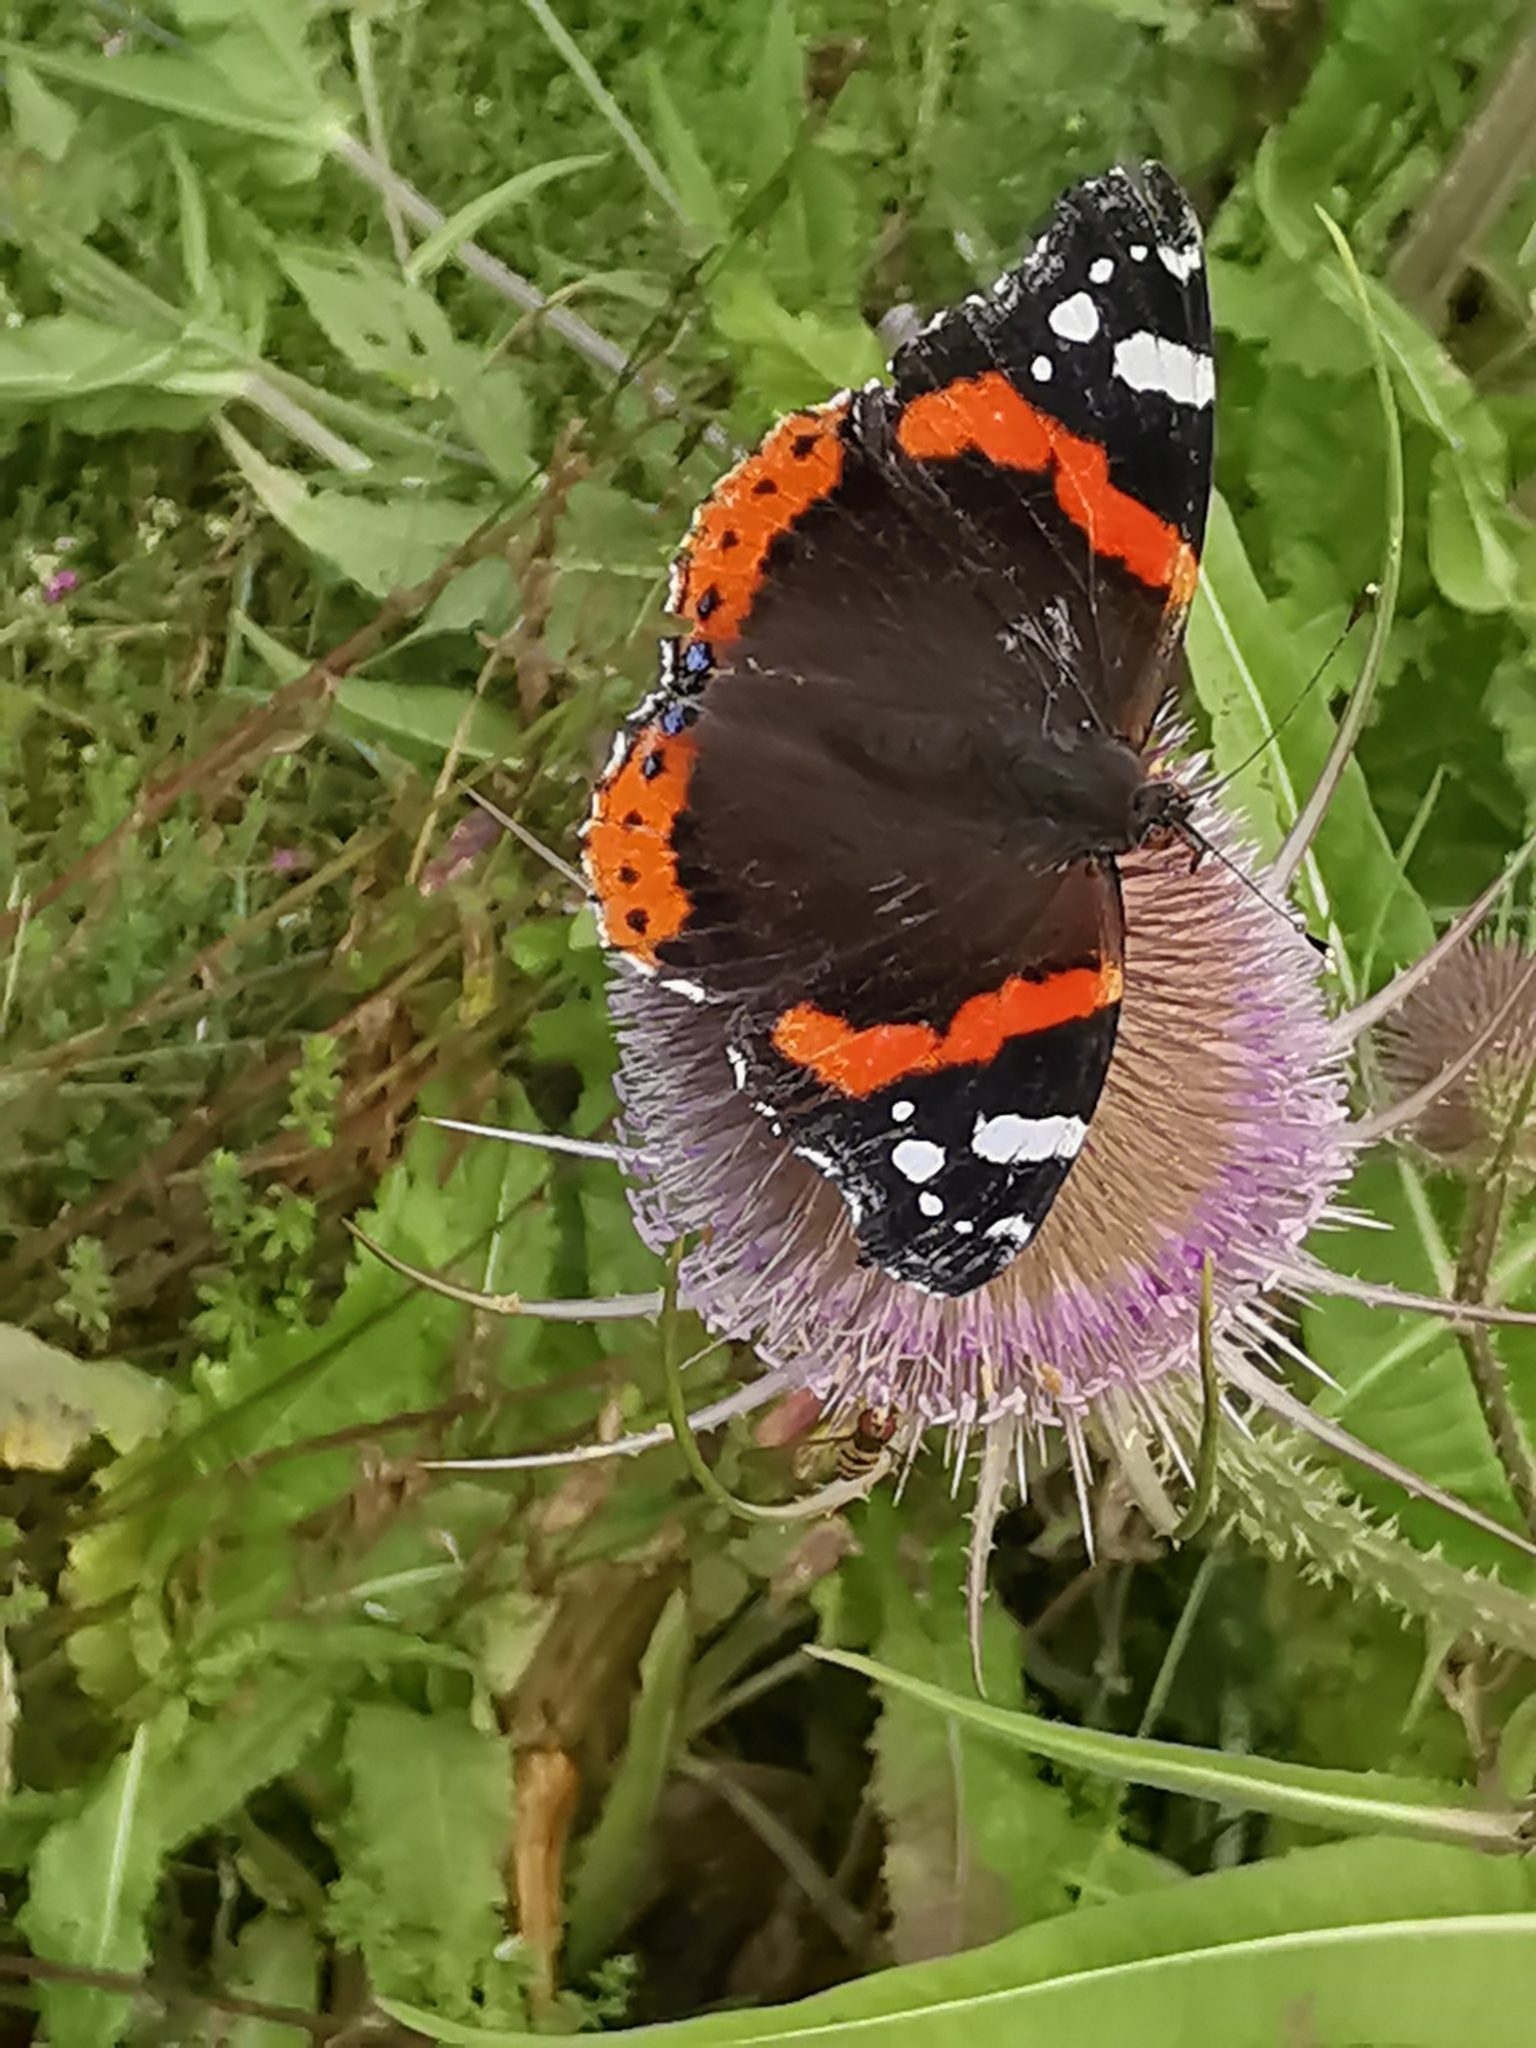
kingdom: Animalia
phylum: Arthropoda
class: Insecta
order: Lepidoptera
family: Nymphalidae
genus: Vanessa
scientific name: Vanessa atalanta
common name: Red admiral
